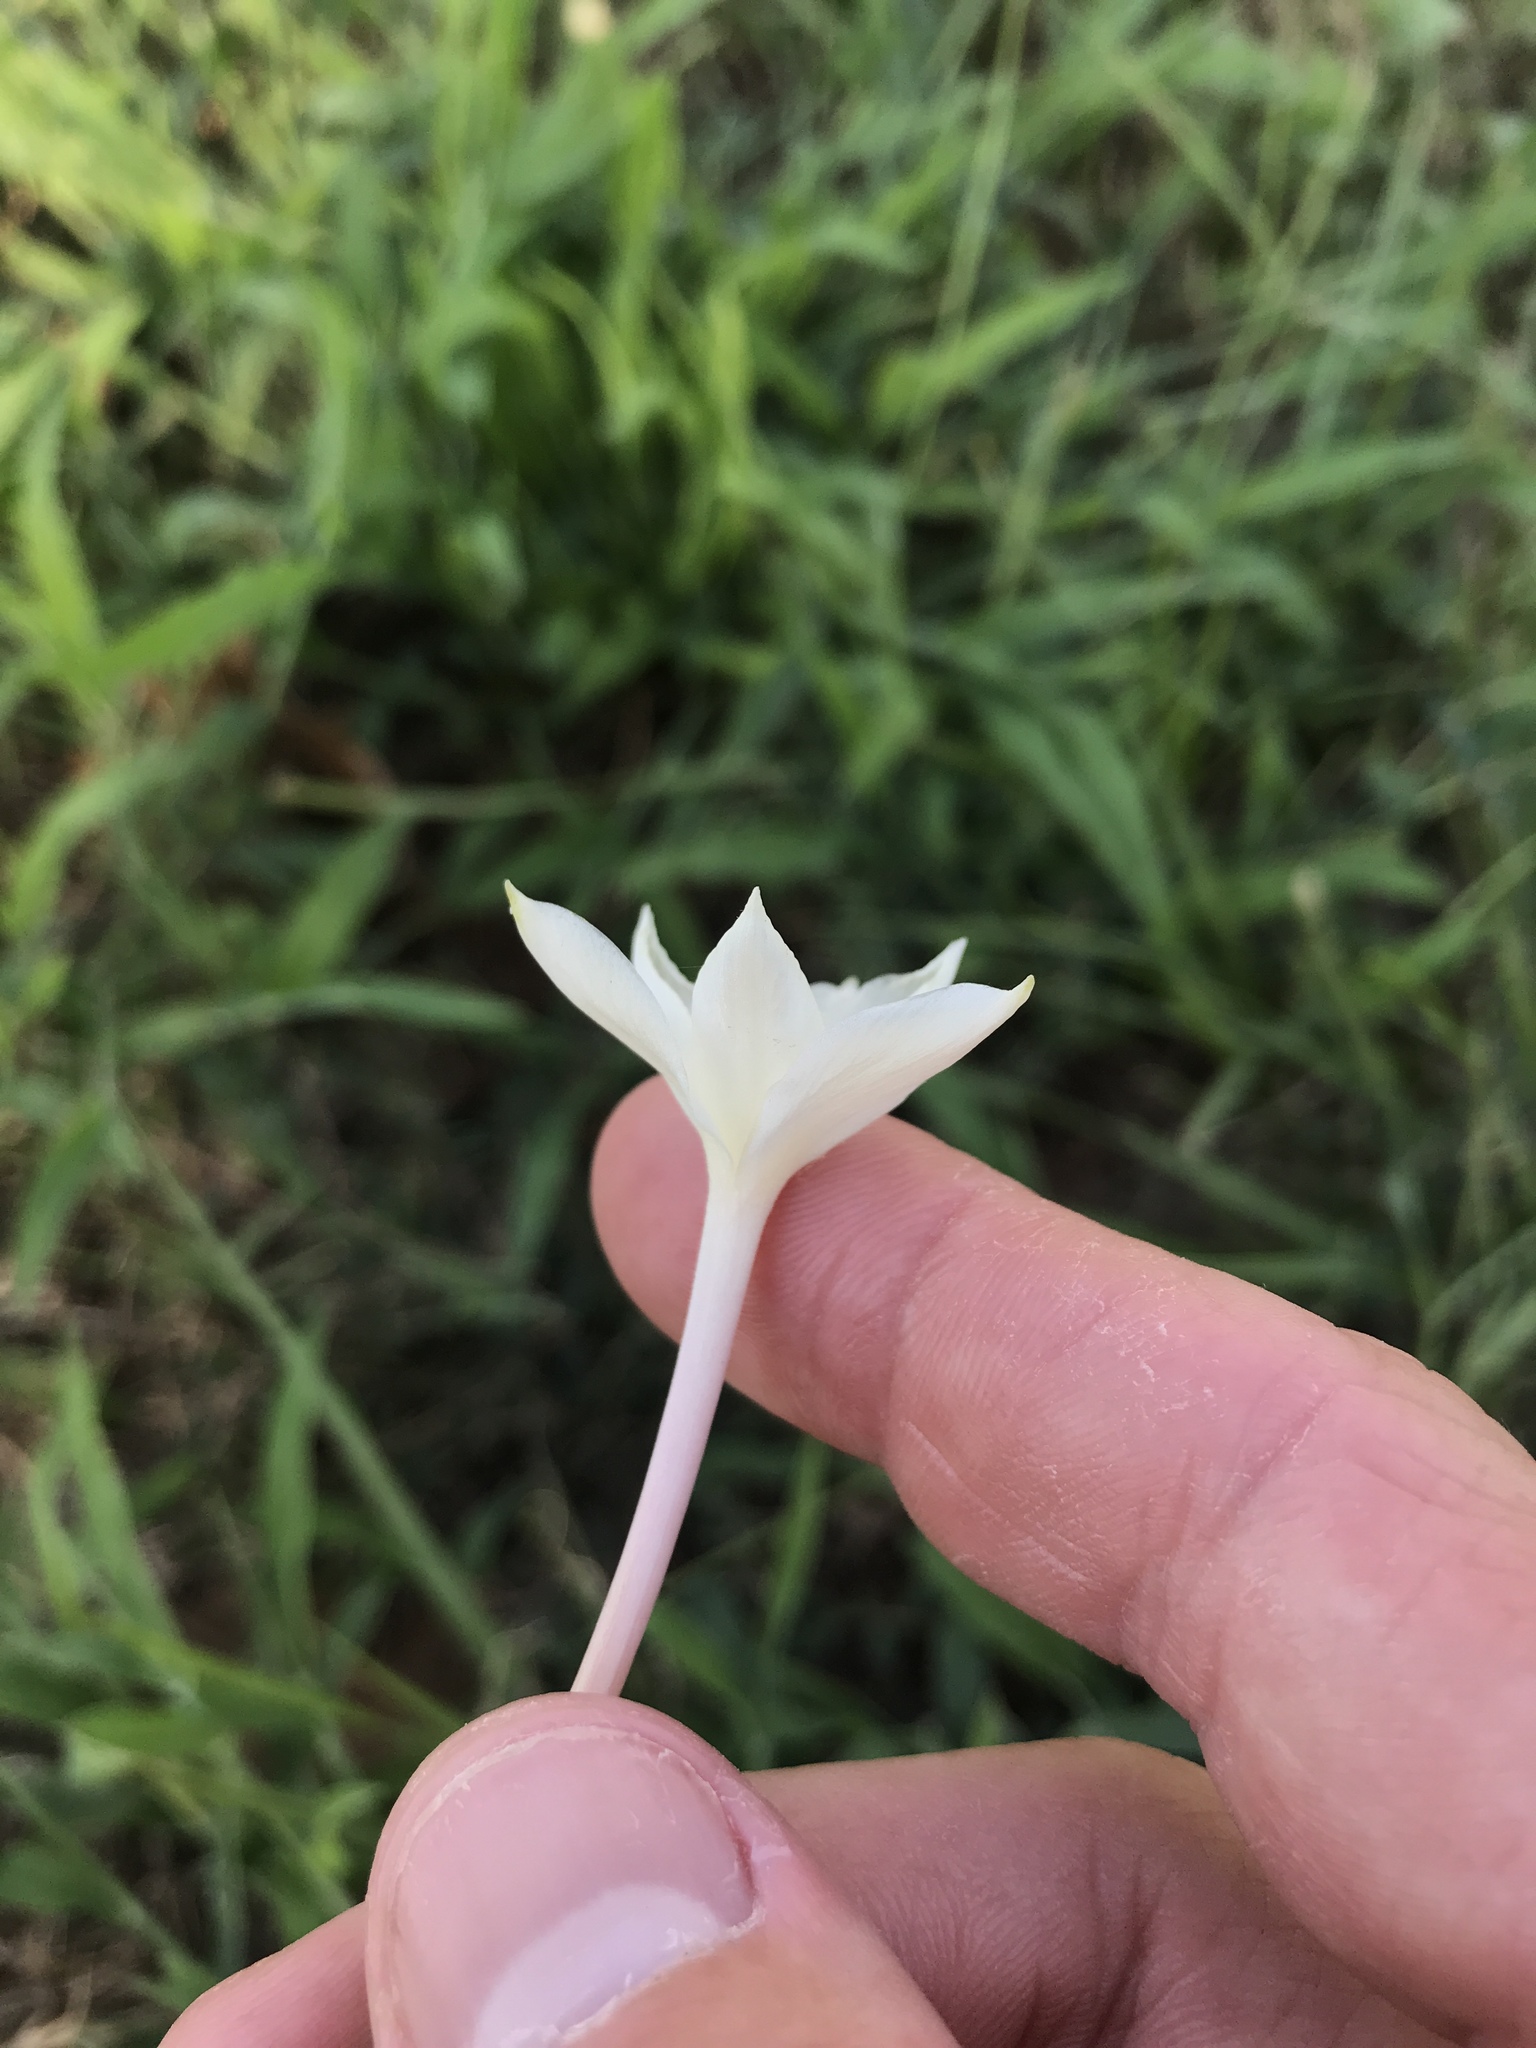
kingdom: Plantae
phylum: Tracheophyta
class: Liliopsida
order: Asparagales
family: Amaryllidaceae
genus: Zephyranthes
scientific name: Zephyranthes chlorosolen
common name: Evening rain-lily
